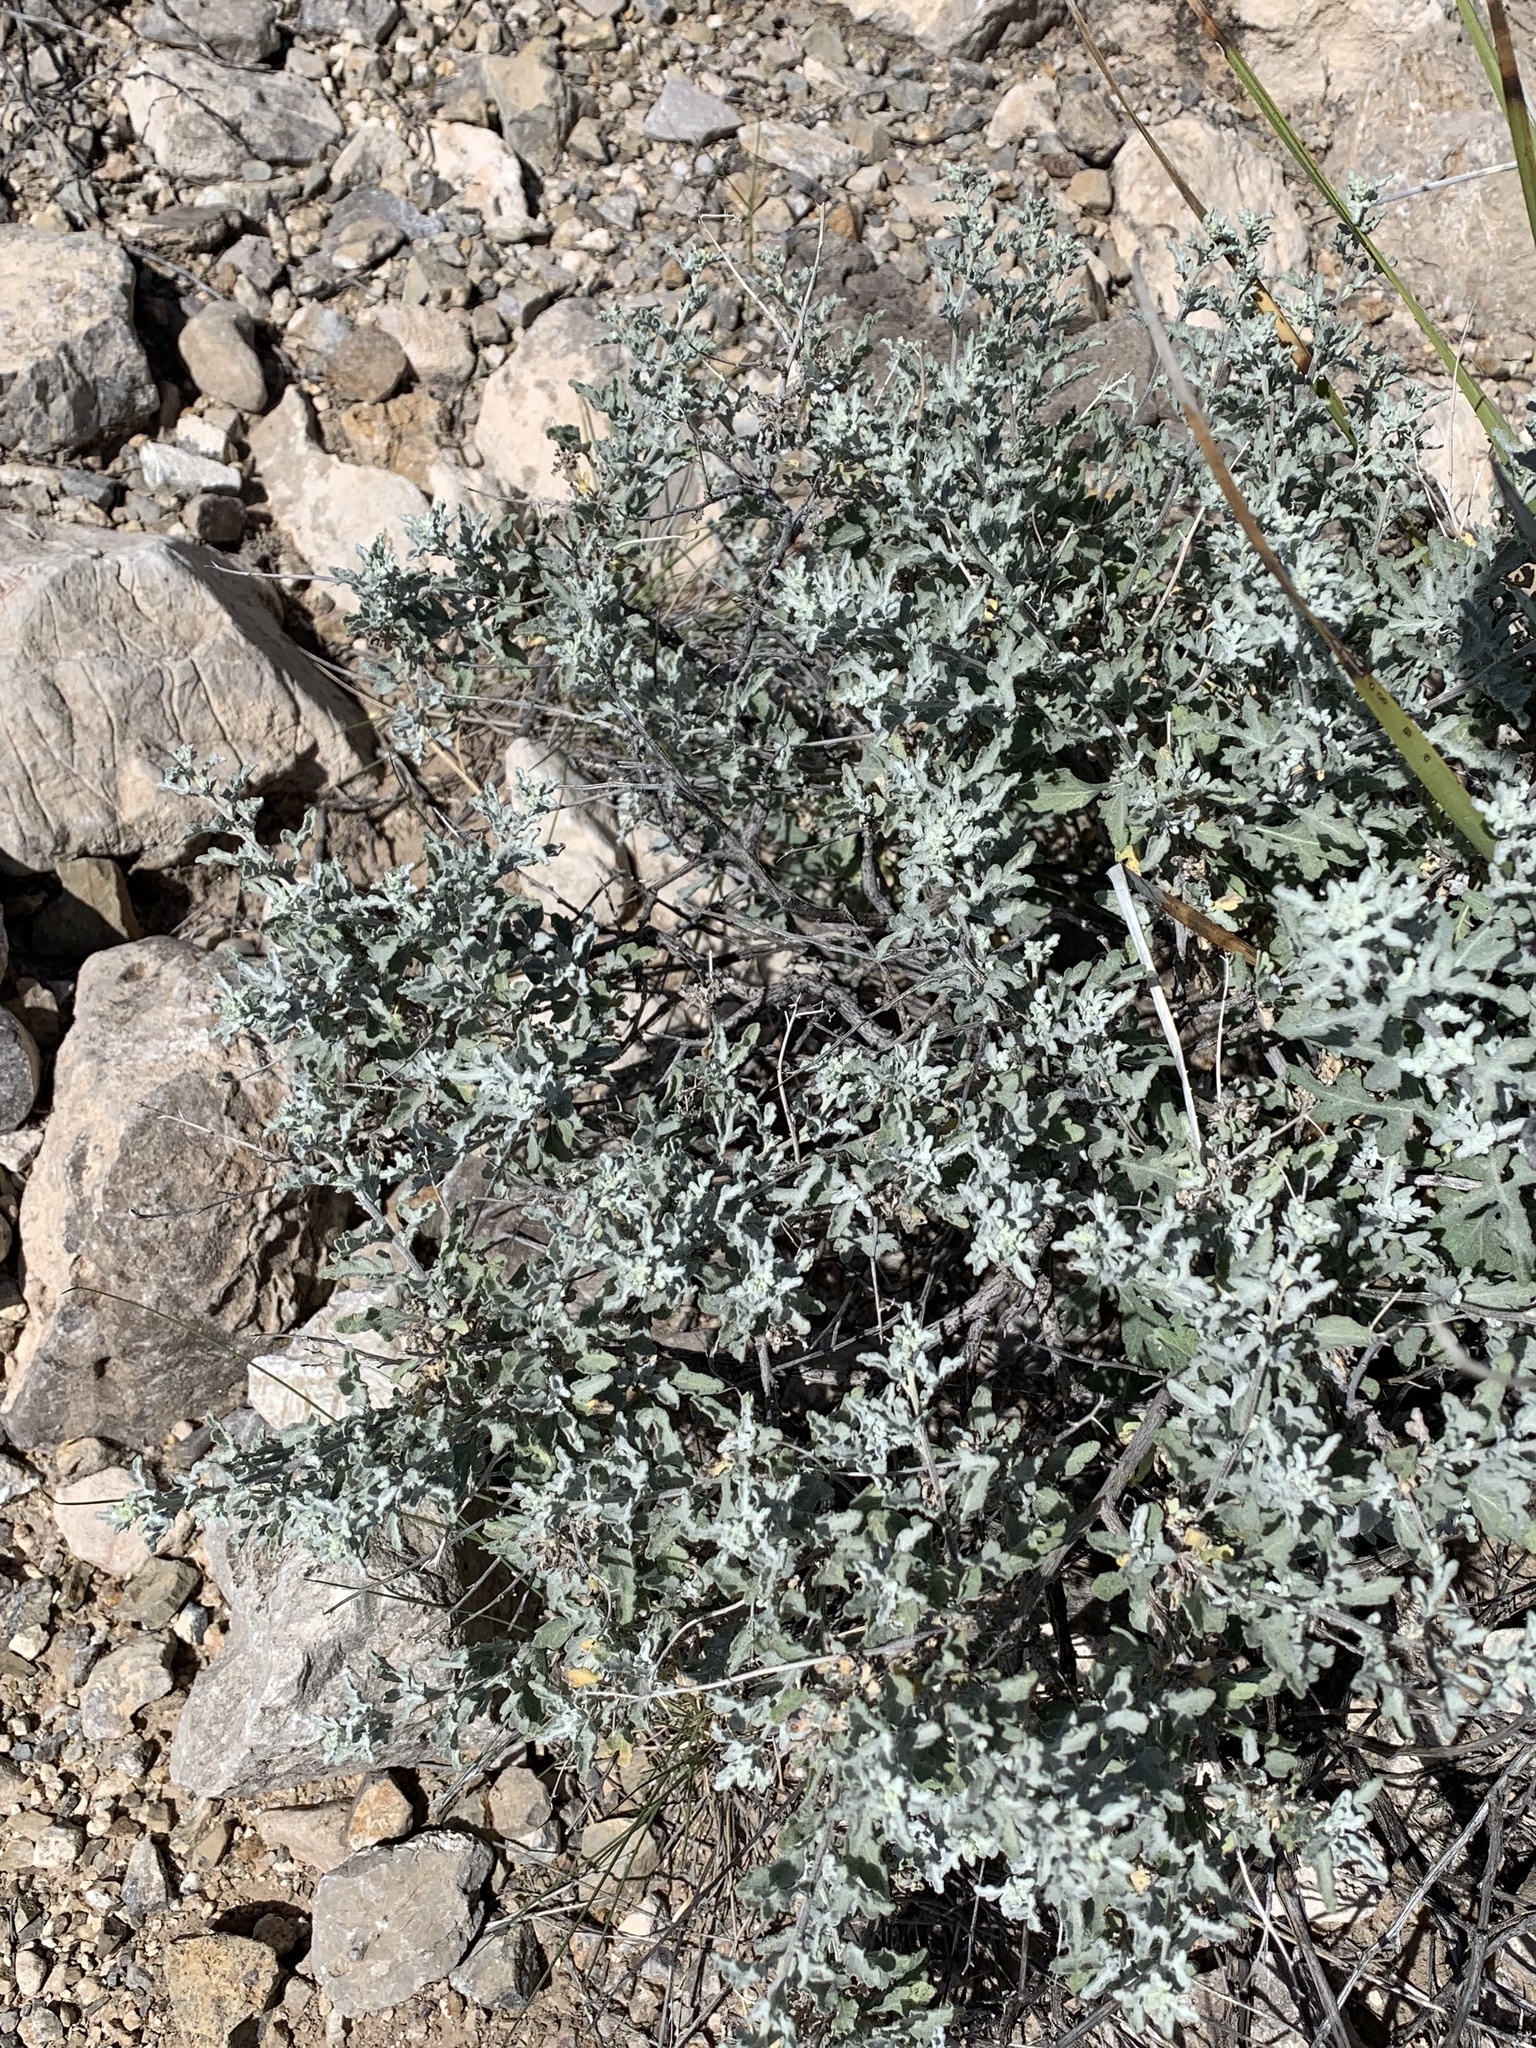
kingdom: Plantae
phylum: Tracheophyta
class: Magnoliopsida
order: Asterales
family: Asteraceae
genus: Parthenium
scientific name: Parthenium incanum
